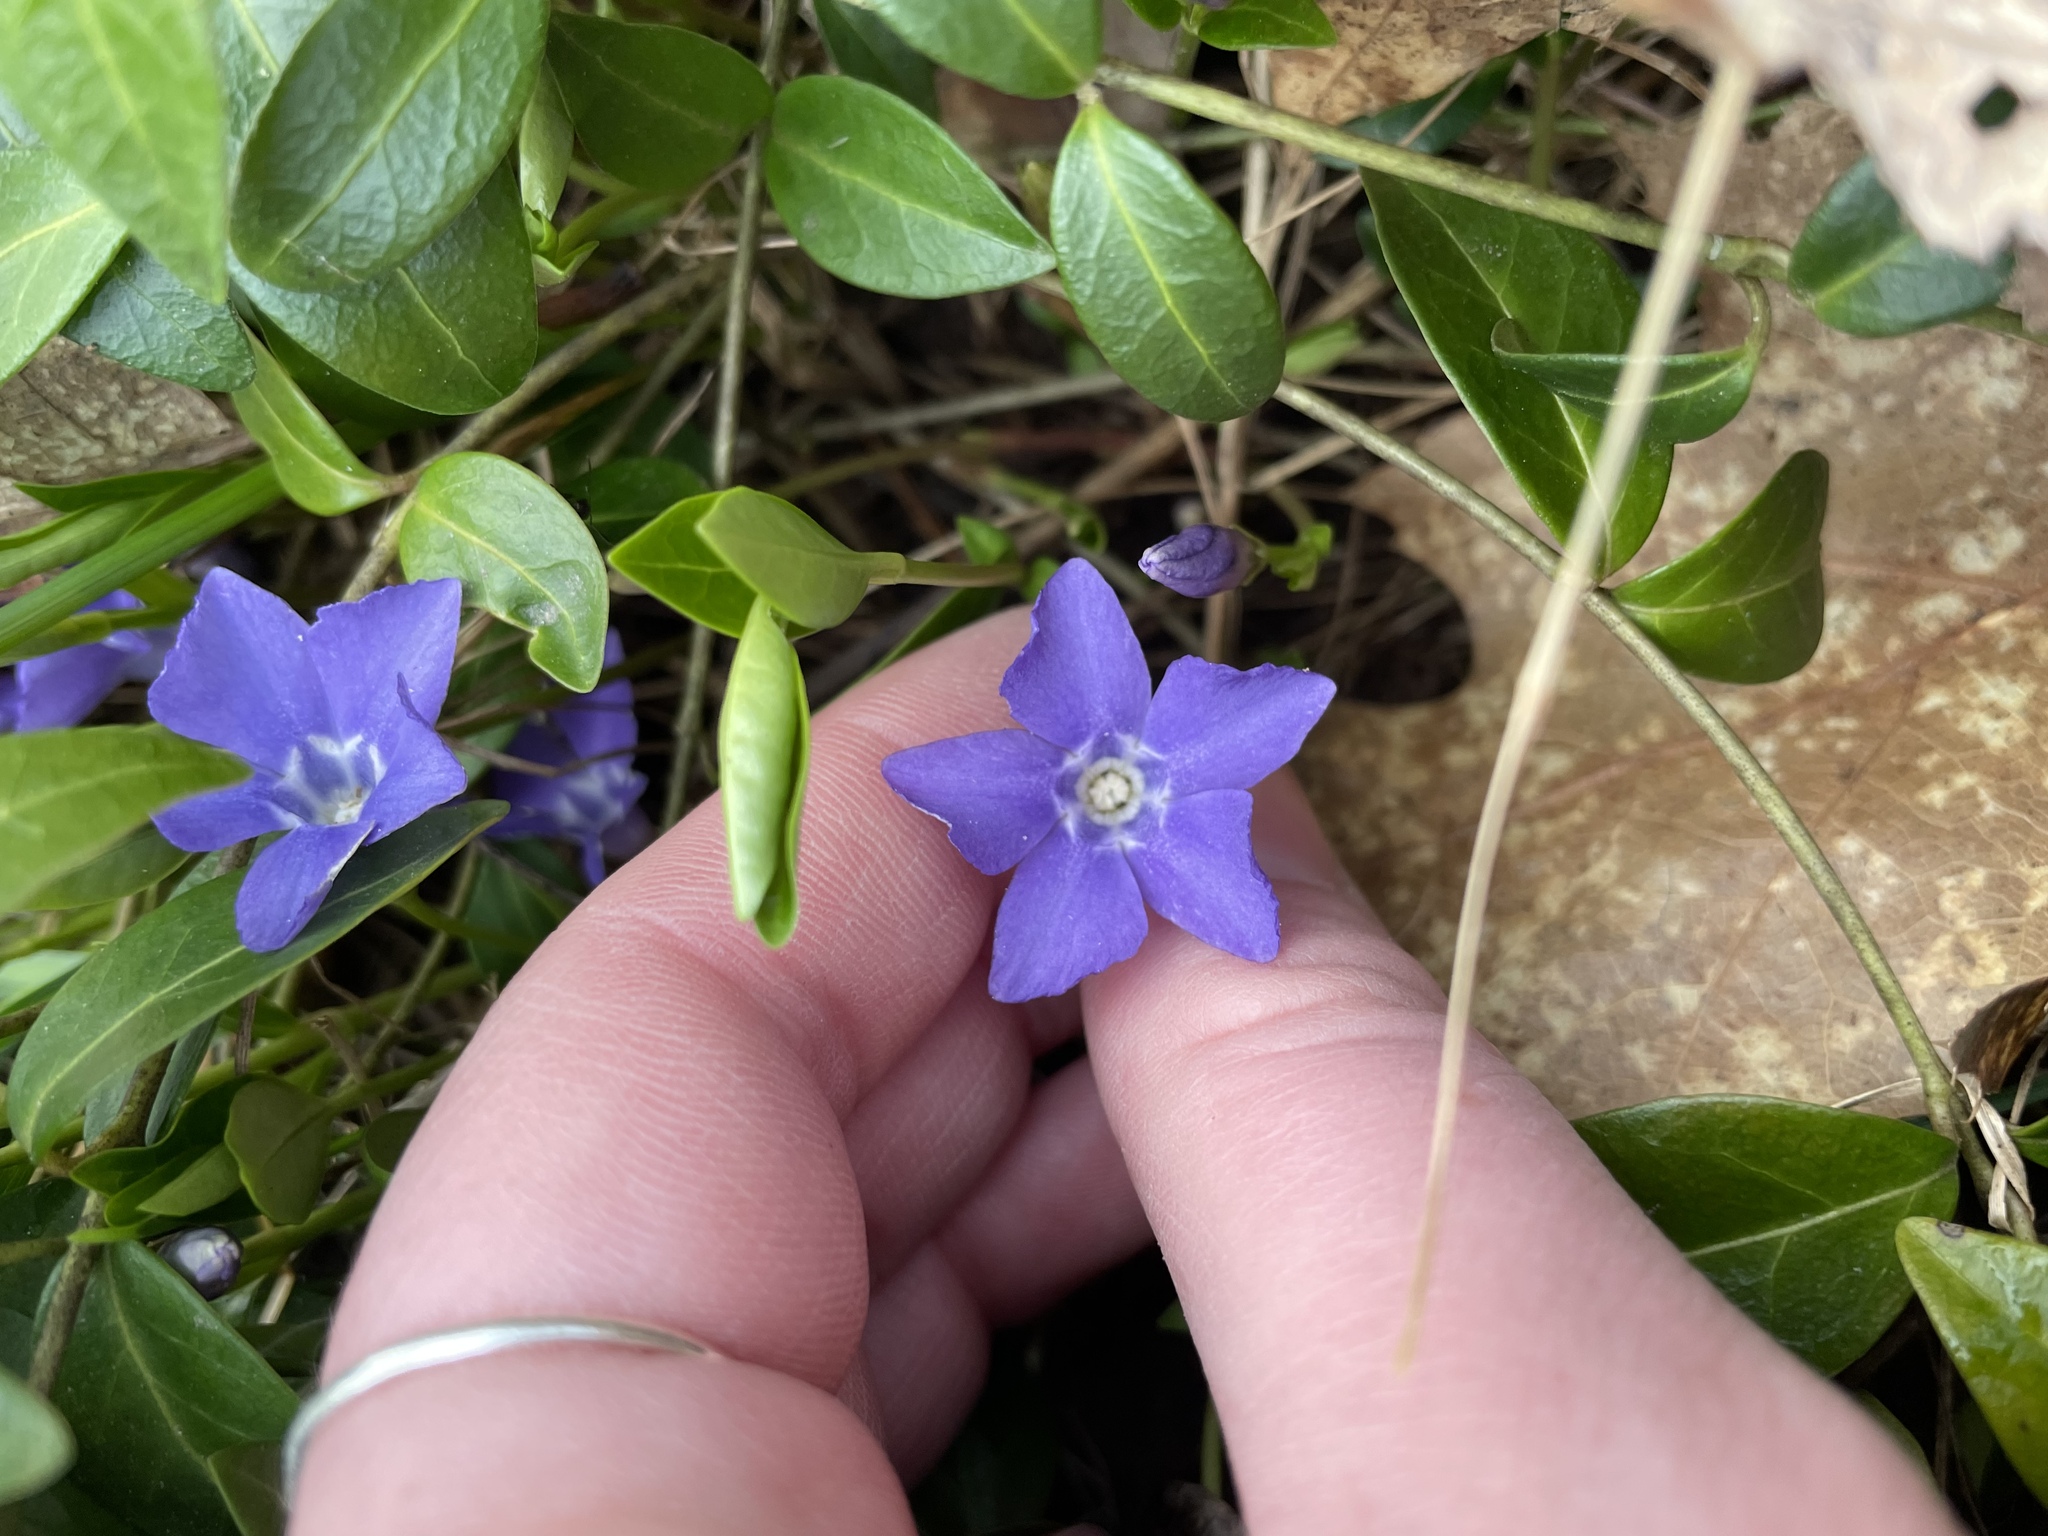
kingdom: Plantae
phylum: Tracheophyta
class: Magnoliopsida
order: Gentianales
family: Apocynaceae
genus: Vinca
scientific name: Vinca minor
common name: Lesser periwinkle
